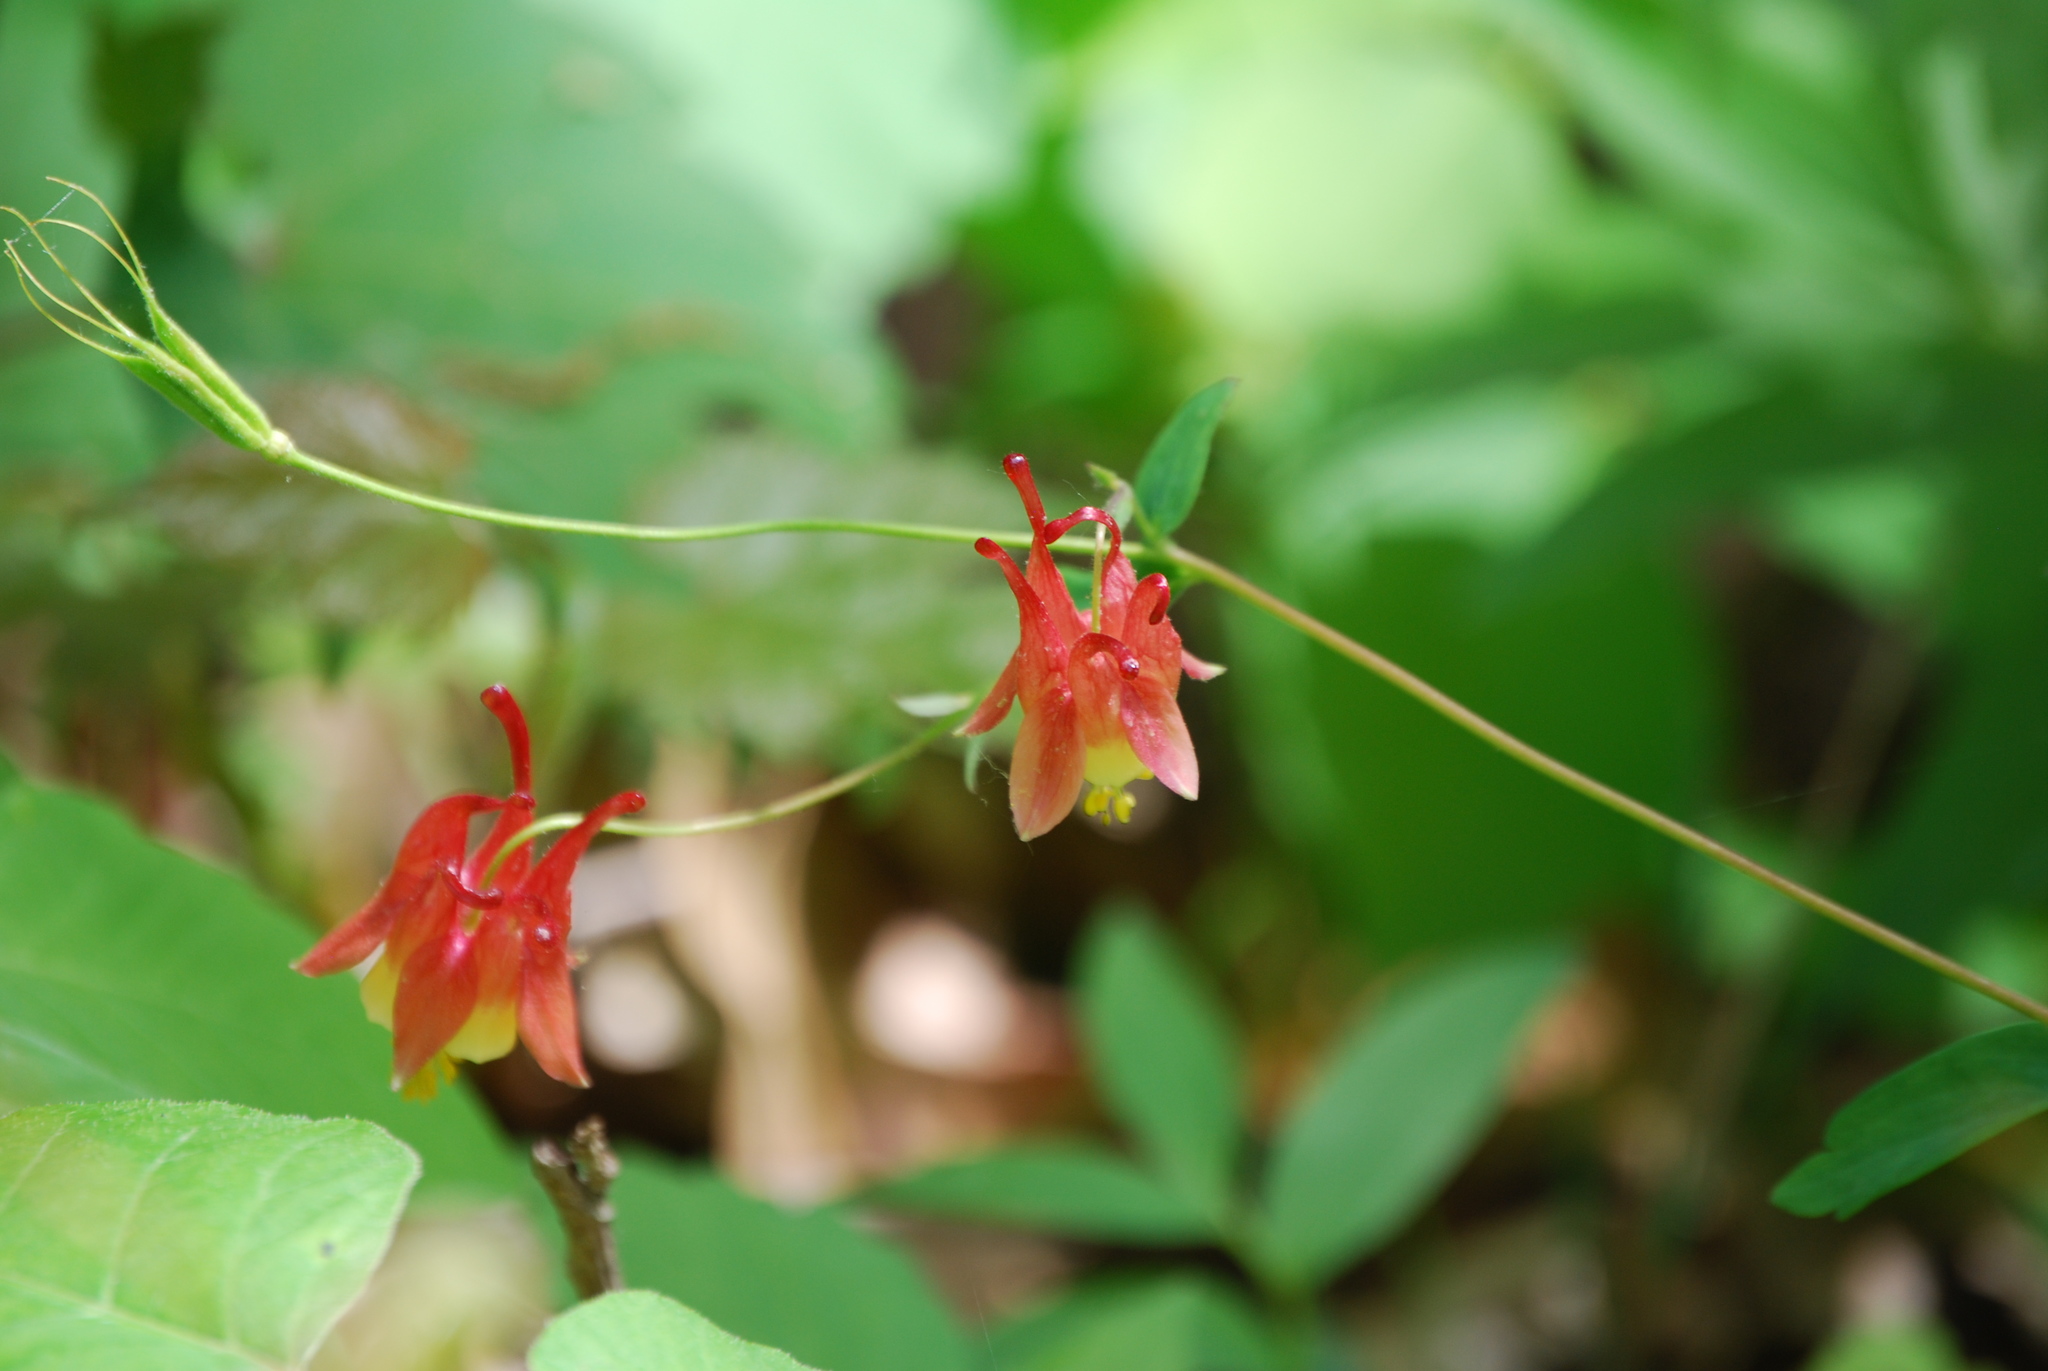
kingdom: Plantae
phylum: Tracheophyta
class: Magnoliopsida
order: Ranunculales
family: Ranunculaceae
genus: Aquilegia
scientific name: Aquilegia canadensis
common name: American columbine
